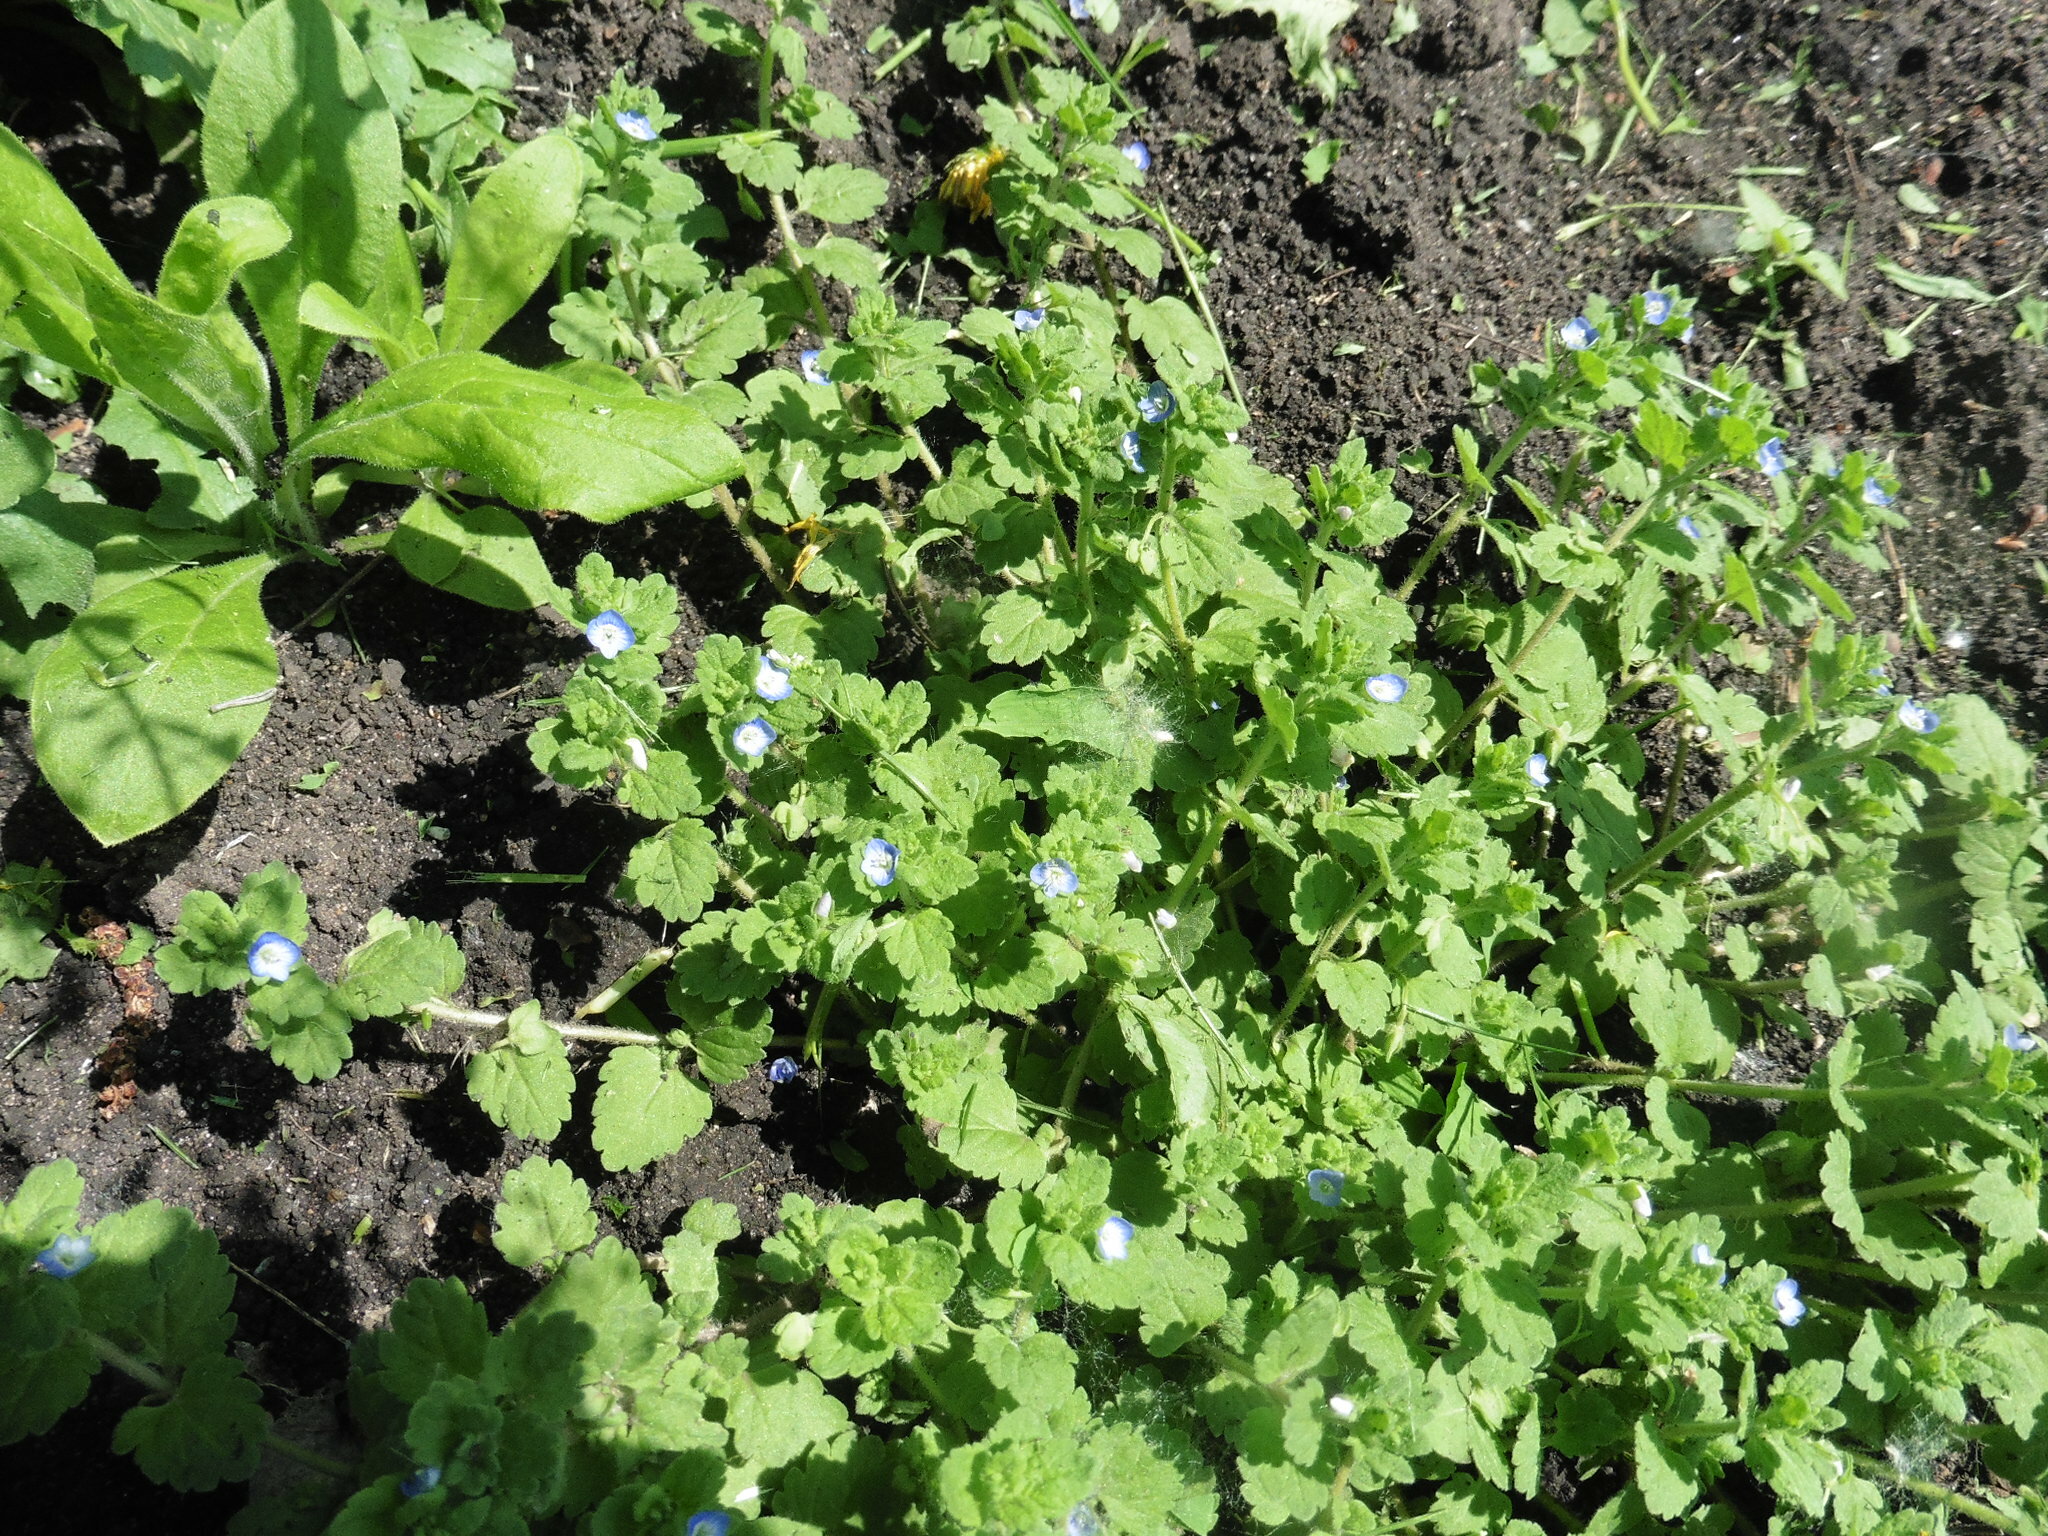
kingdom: Plantae
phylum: Tracheophyta
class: Magnoliopsida
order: Lamiales
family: Plantaginaceae
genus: Veronica
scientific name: Veronica polita
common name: Grey field-speedwell
